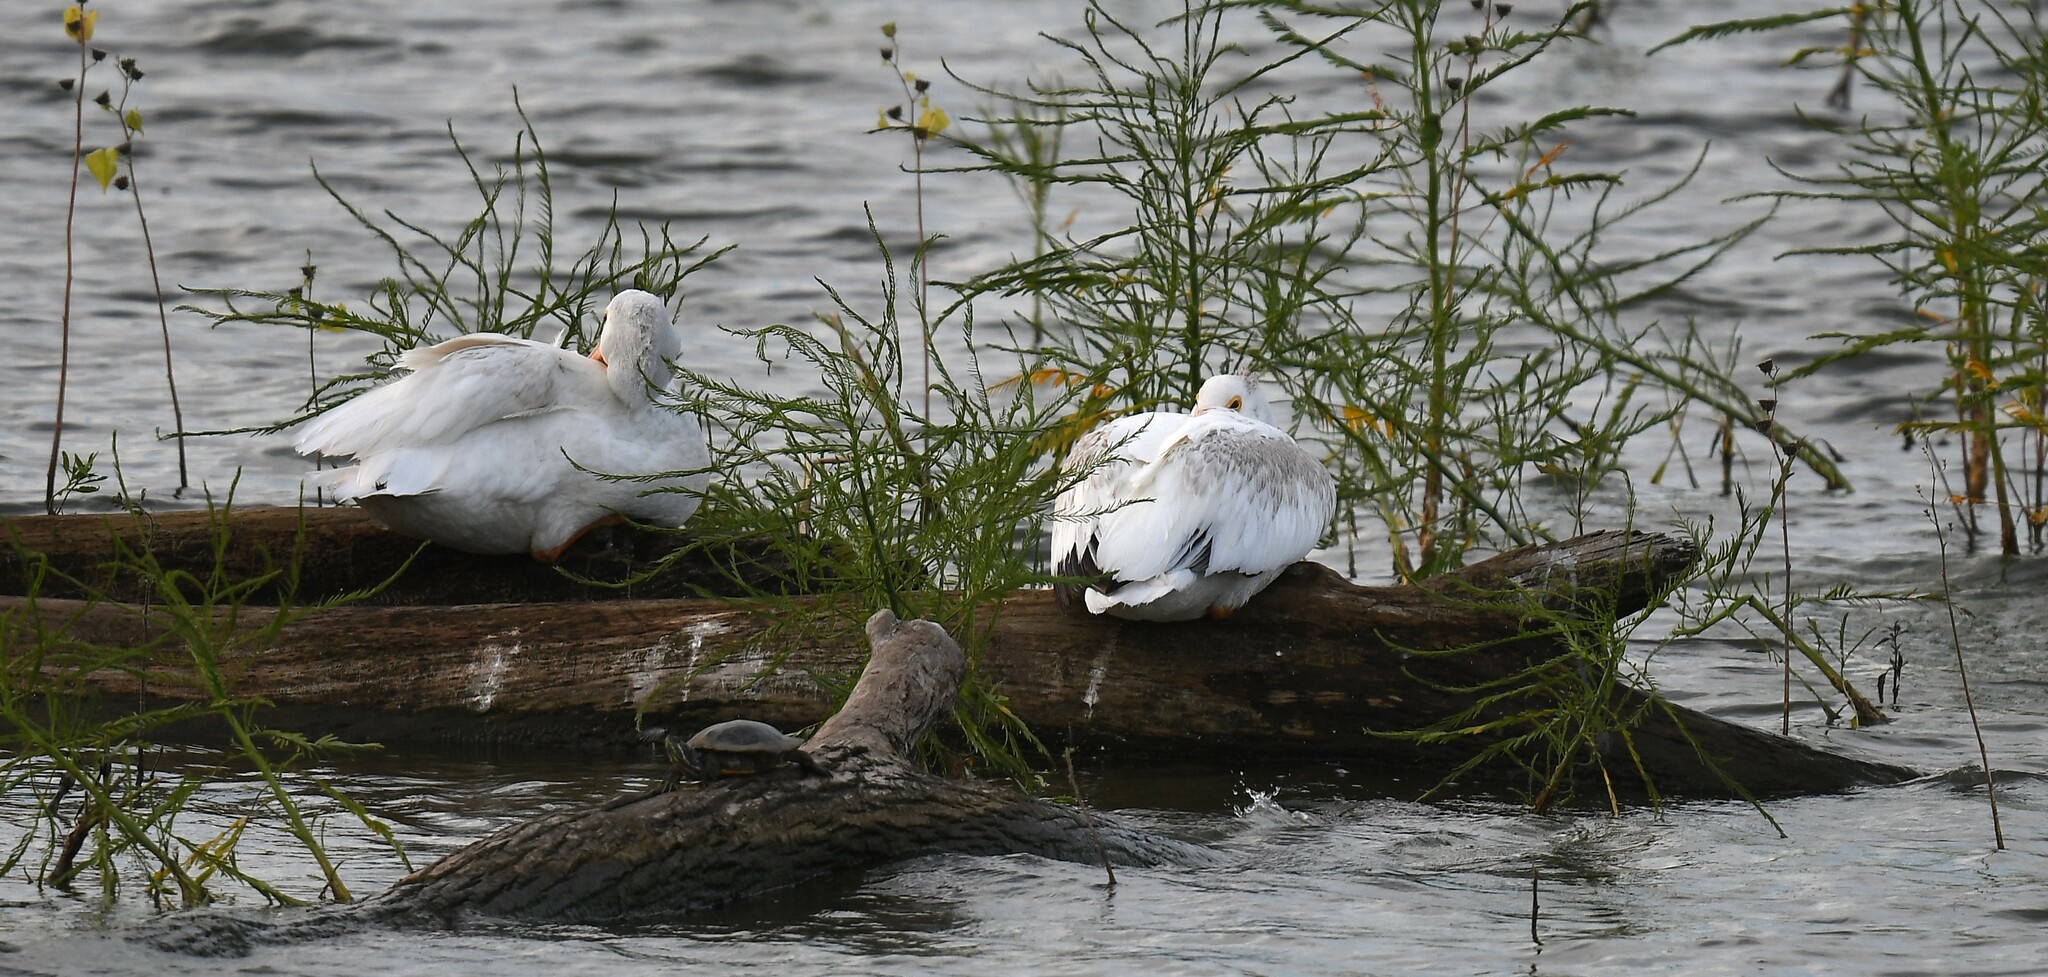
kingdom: Animalia
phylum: Chordata
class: Aves
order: Pelecaniformes
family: Pelecanidae
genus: Pelecanus
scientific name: Pelecanus erythrorhynchos
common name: American white pelican
